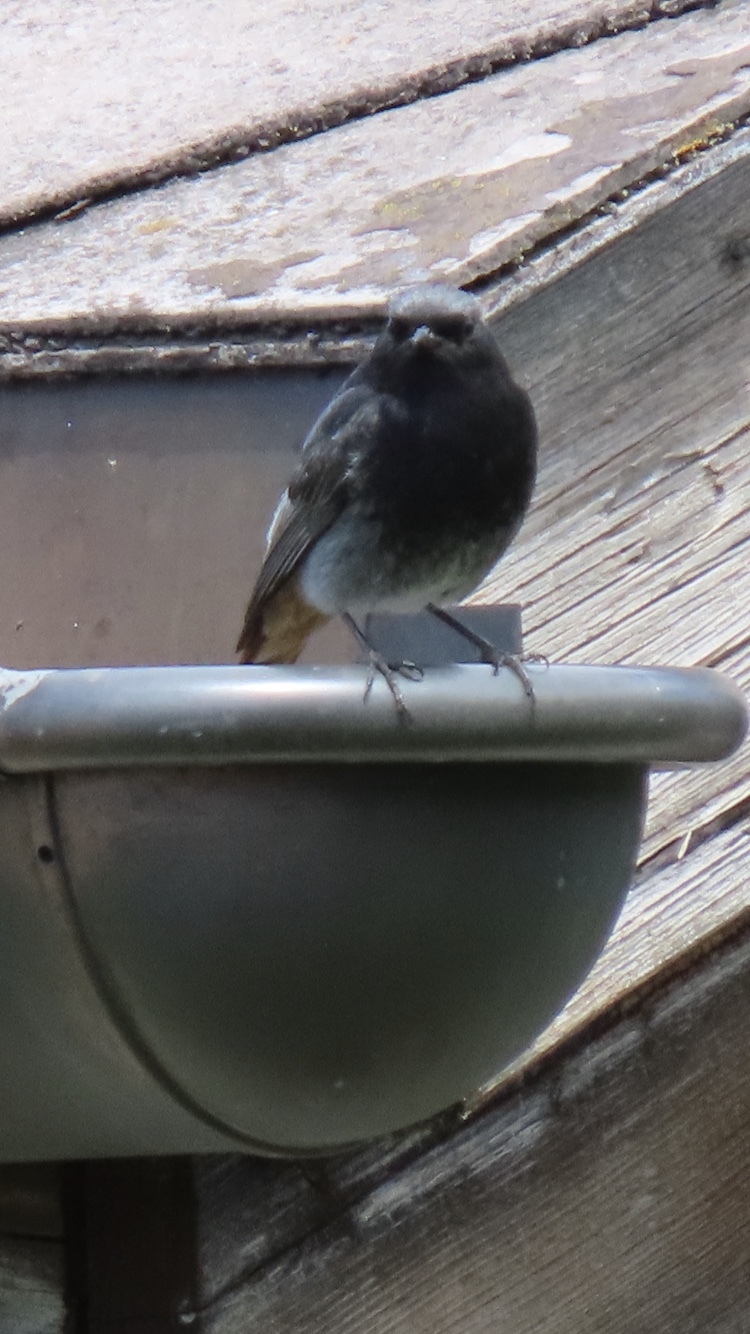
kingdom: Animalia
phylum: Chordata
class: Aves
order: Passeriformes
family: Muscicapidae
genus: Phoenicurus
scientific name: Phoenicurus ochruros
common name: Black redstart
